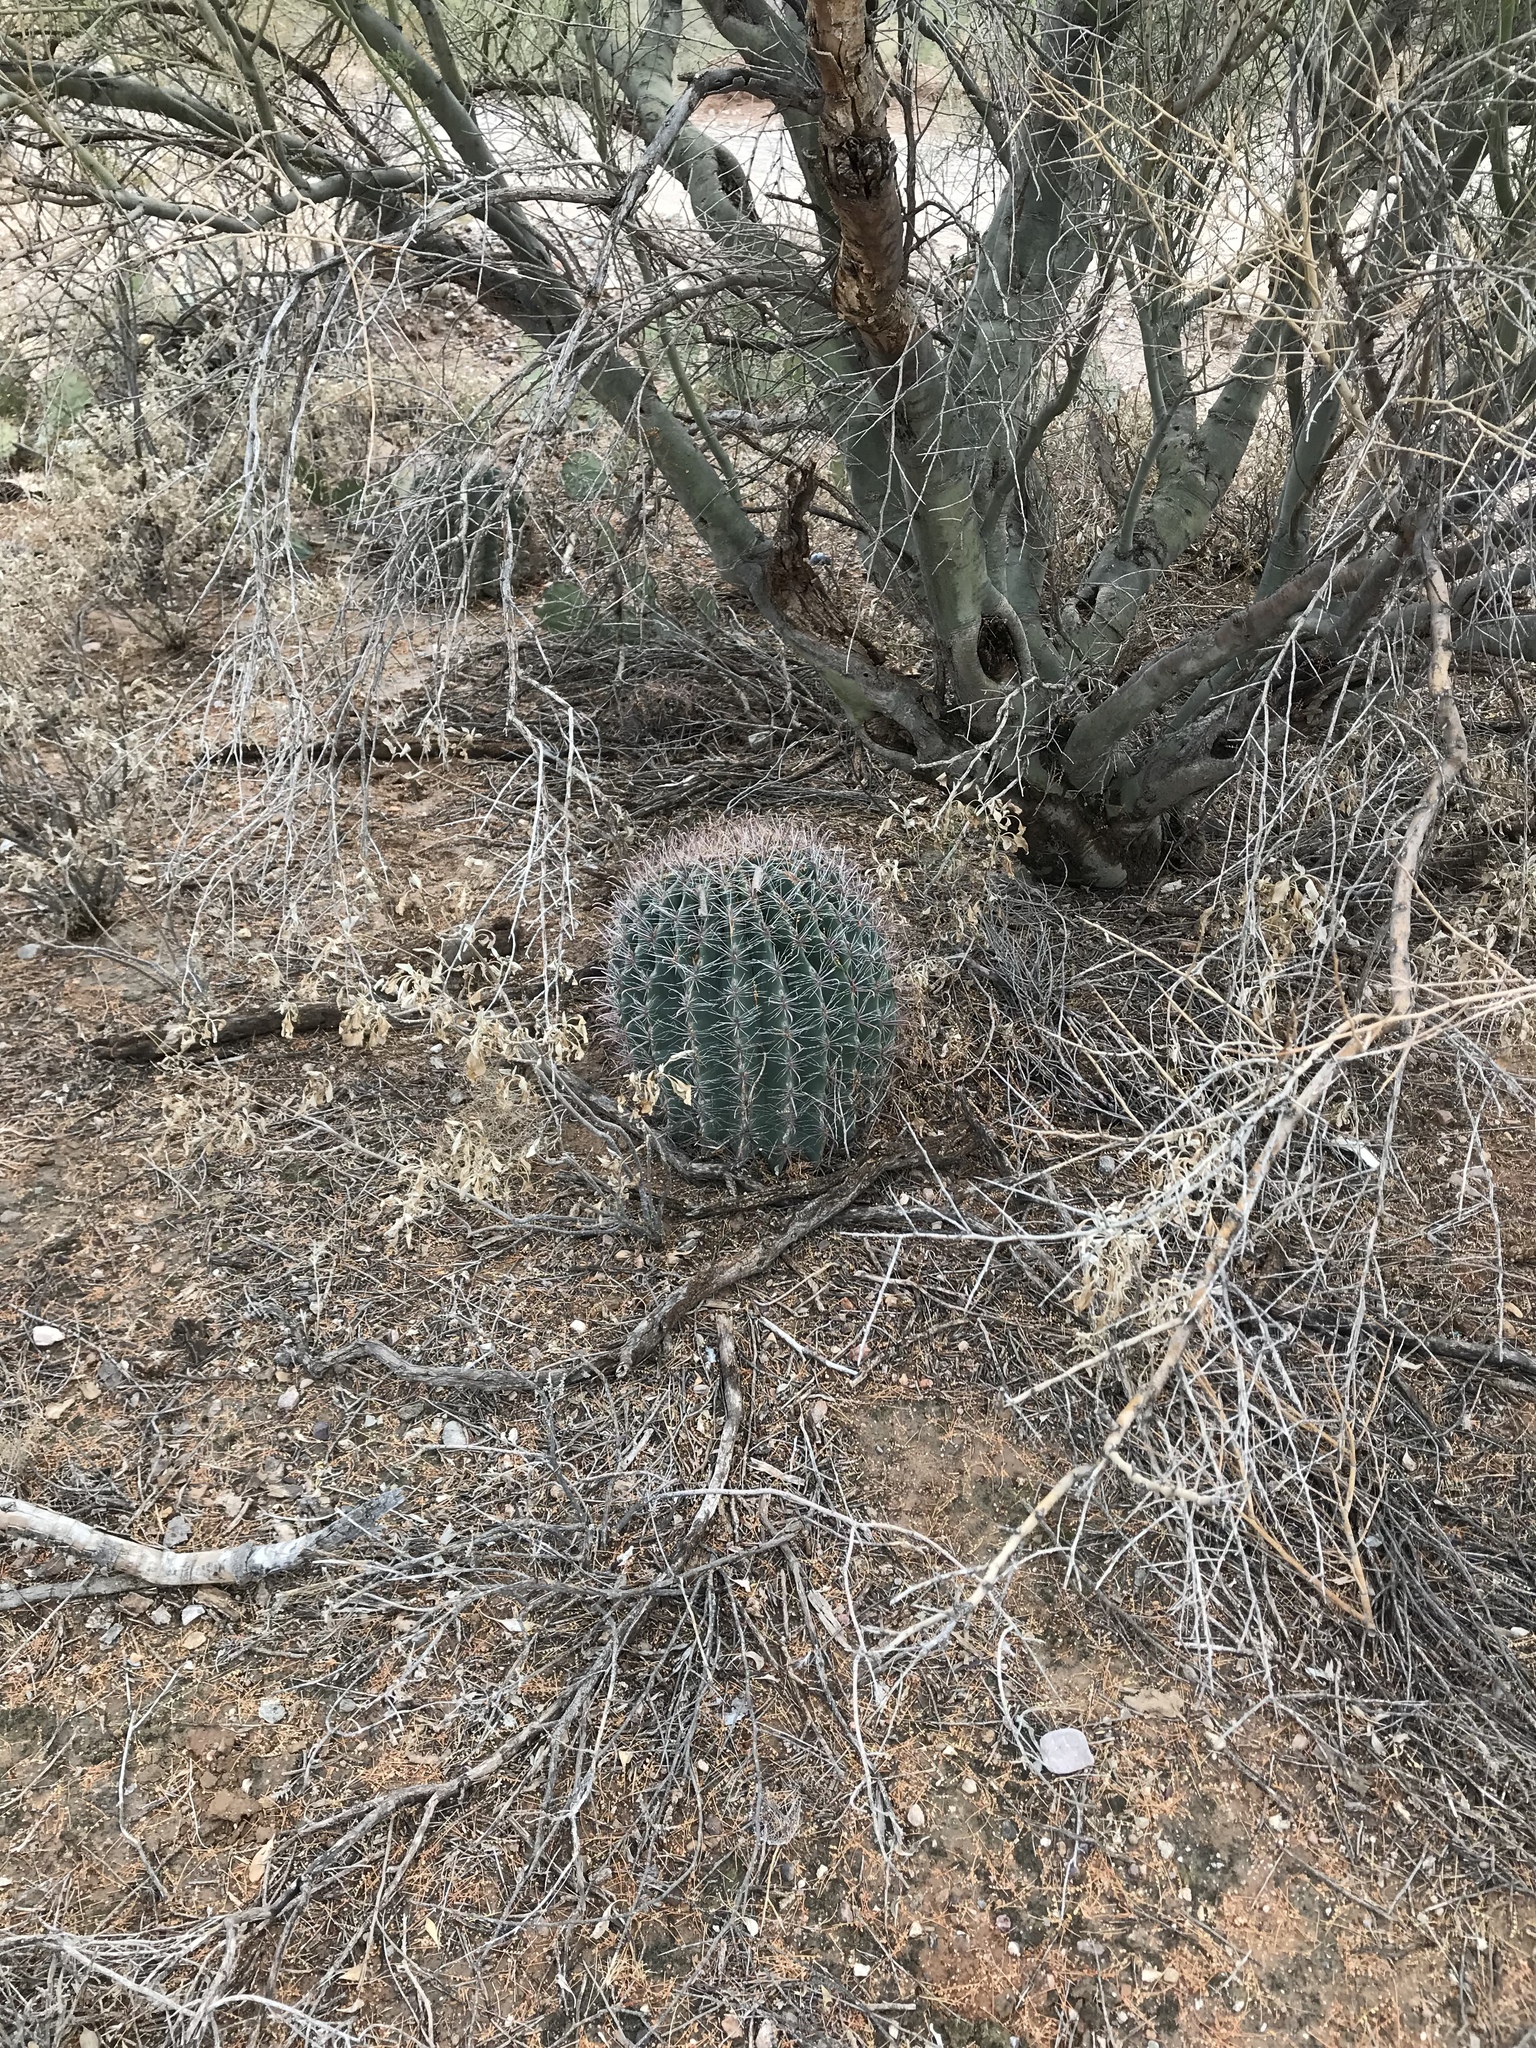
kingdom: Plantae
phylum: Tracheophyta
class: Magnoliopsida
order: Caryophyllales
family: Cactaceae
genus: Ferocactus
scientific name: Ferocactus wislizeni
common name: Candy barrel cactus
